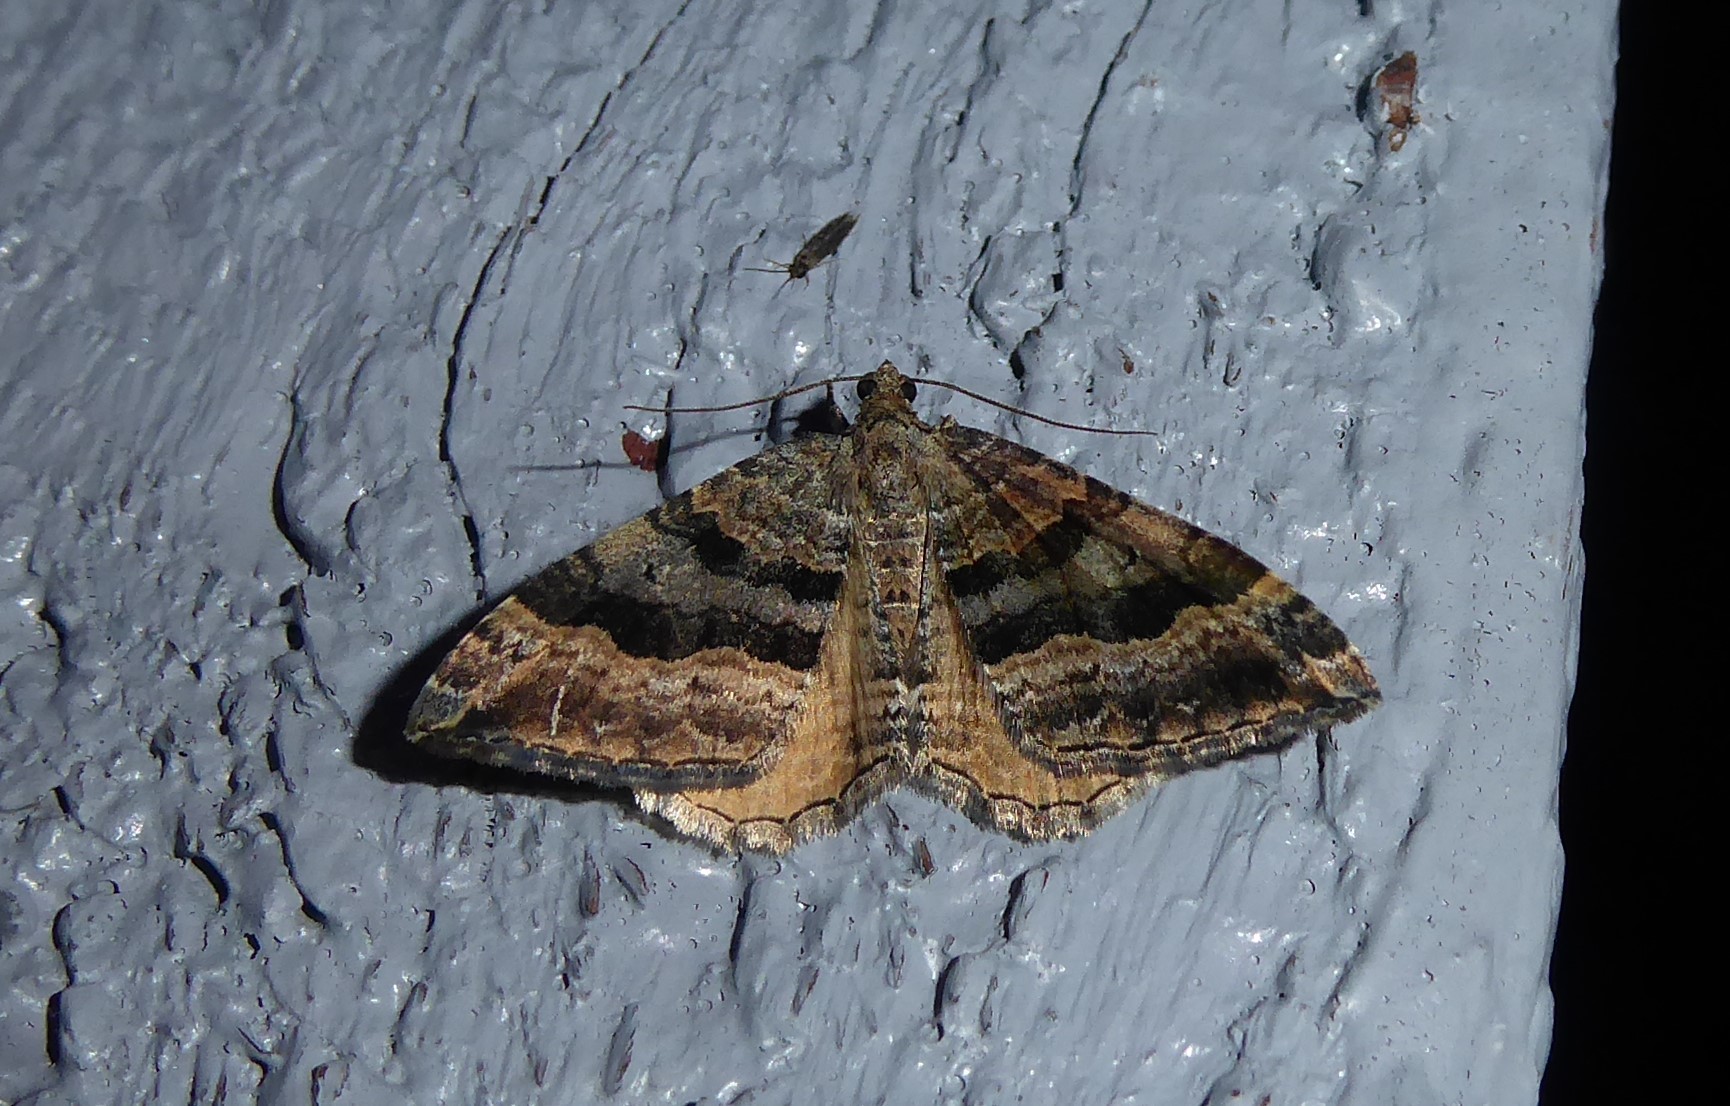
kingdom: Animalia
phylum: Arthropoda
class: Insecta
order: Lepidoptera
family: Geometridae
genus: Hydriomena
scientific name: Hydriomena deltoidata
